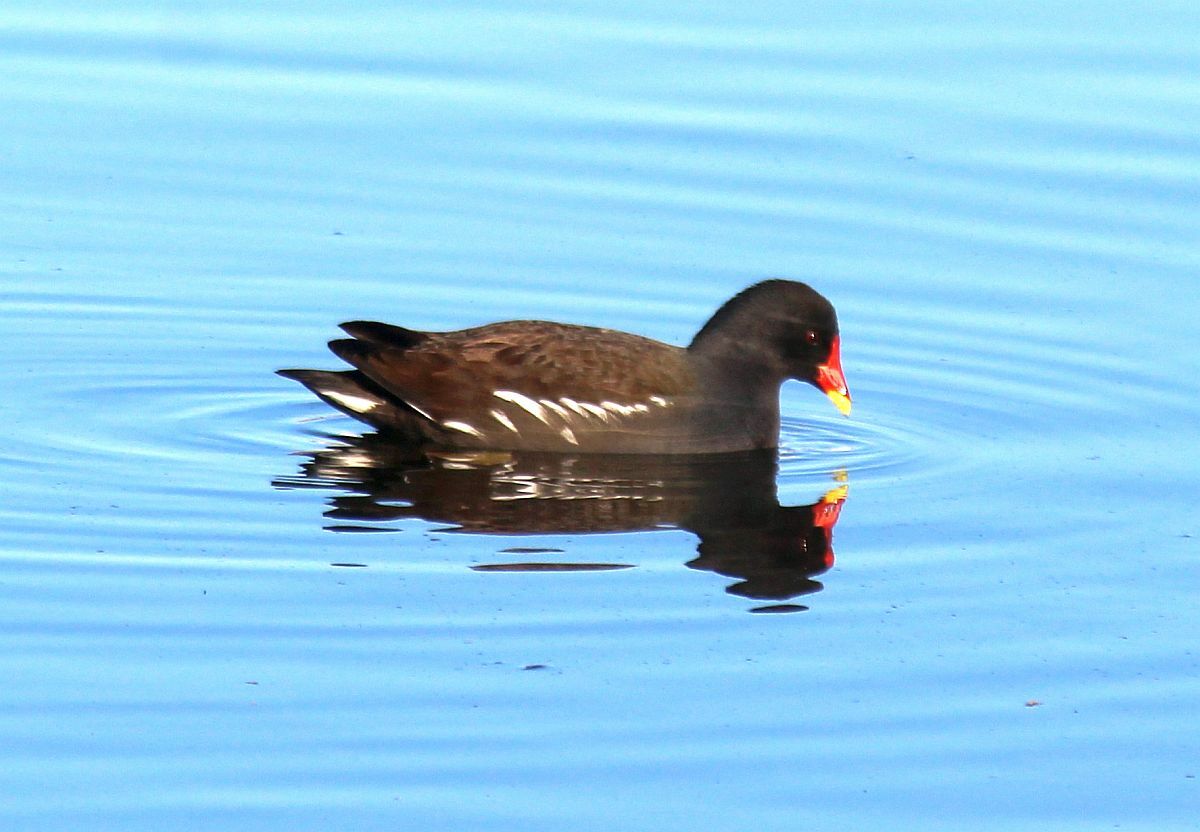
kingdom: Animalia
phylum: Chordata
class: Aves
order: Gruiformes
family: Rallidae
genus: Gallinula
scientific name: Gallinula chloropus
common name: Common moorhen
